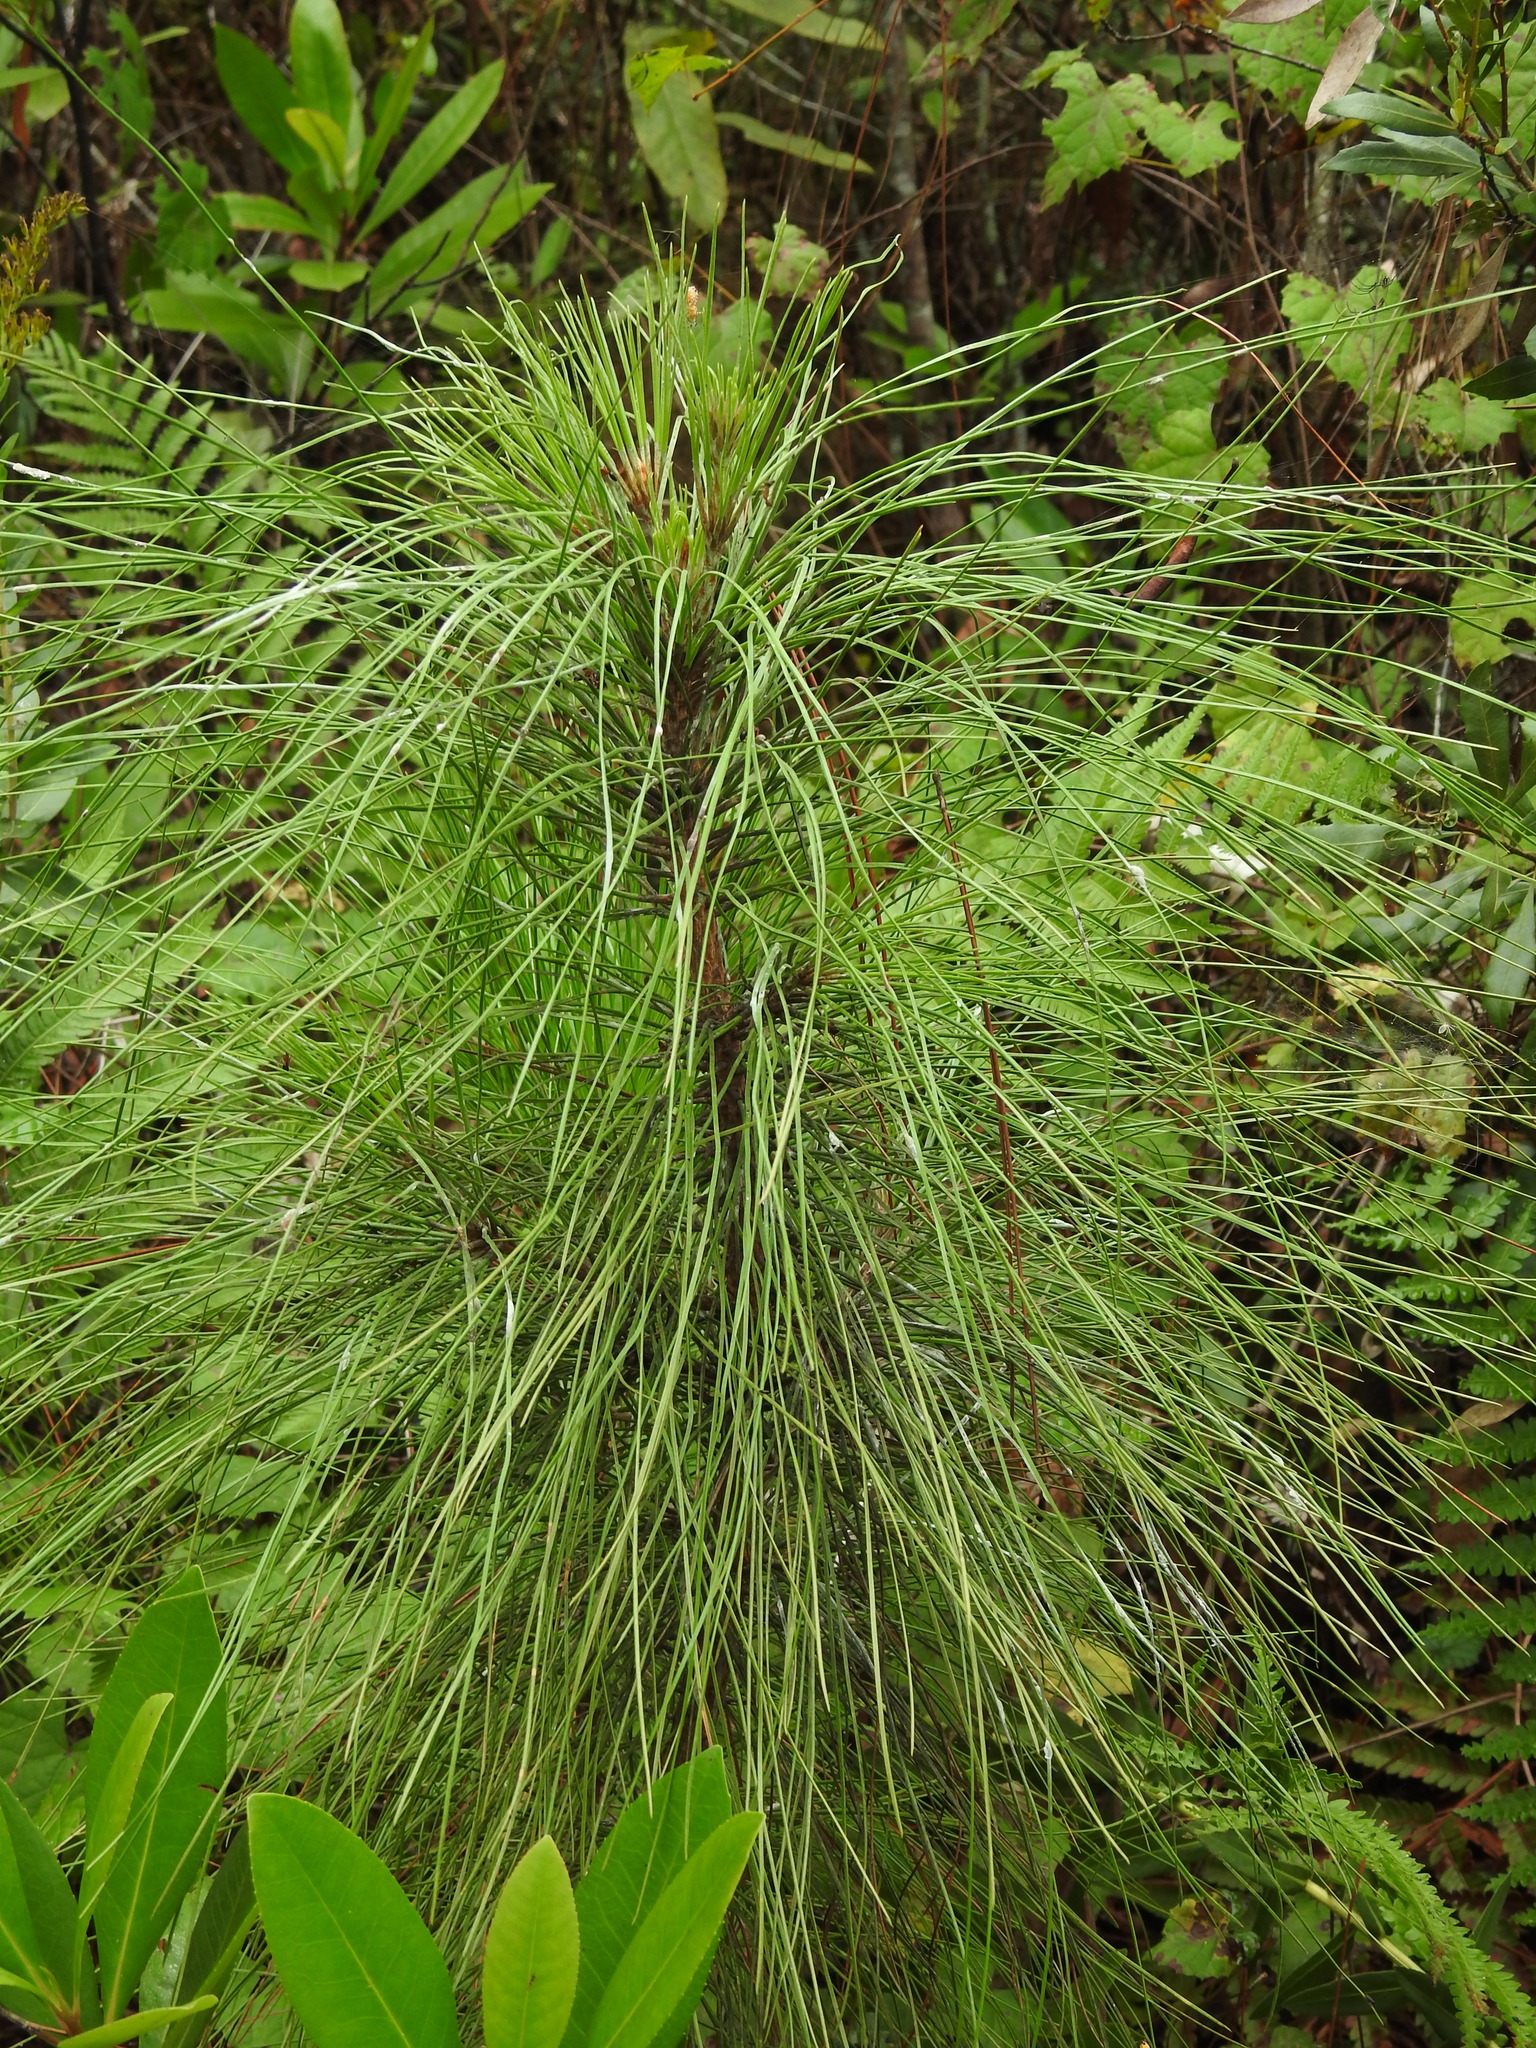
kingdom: Plantae
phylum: Tracheophyta
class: Pinopsida
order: Pinales
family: Pinaceae
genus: Pinus
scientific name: Pinus elliottii
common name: Slash pine
